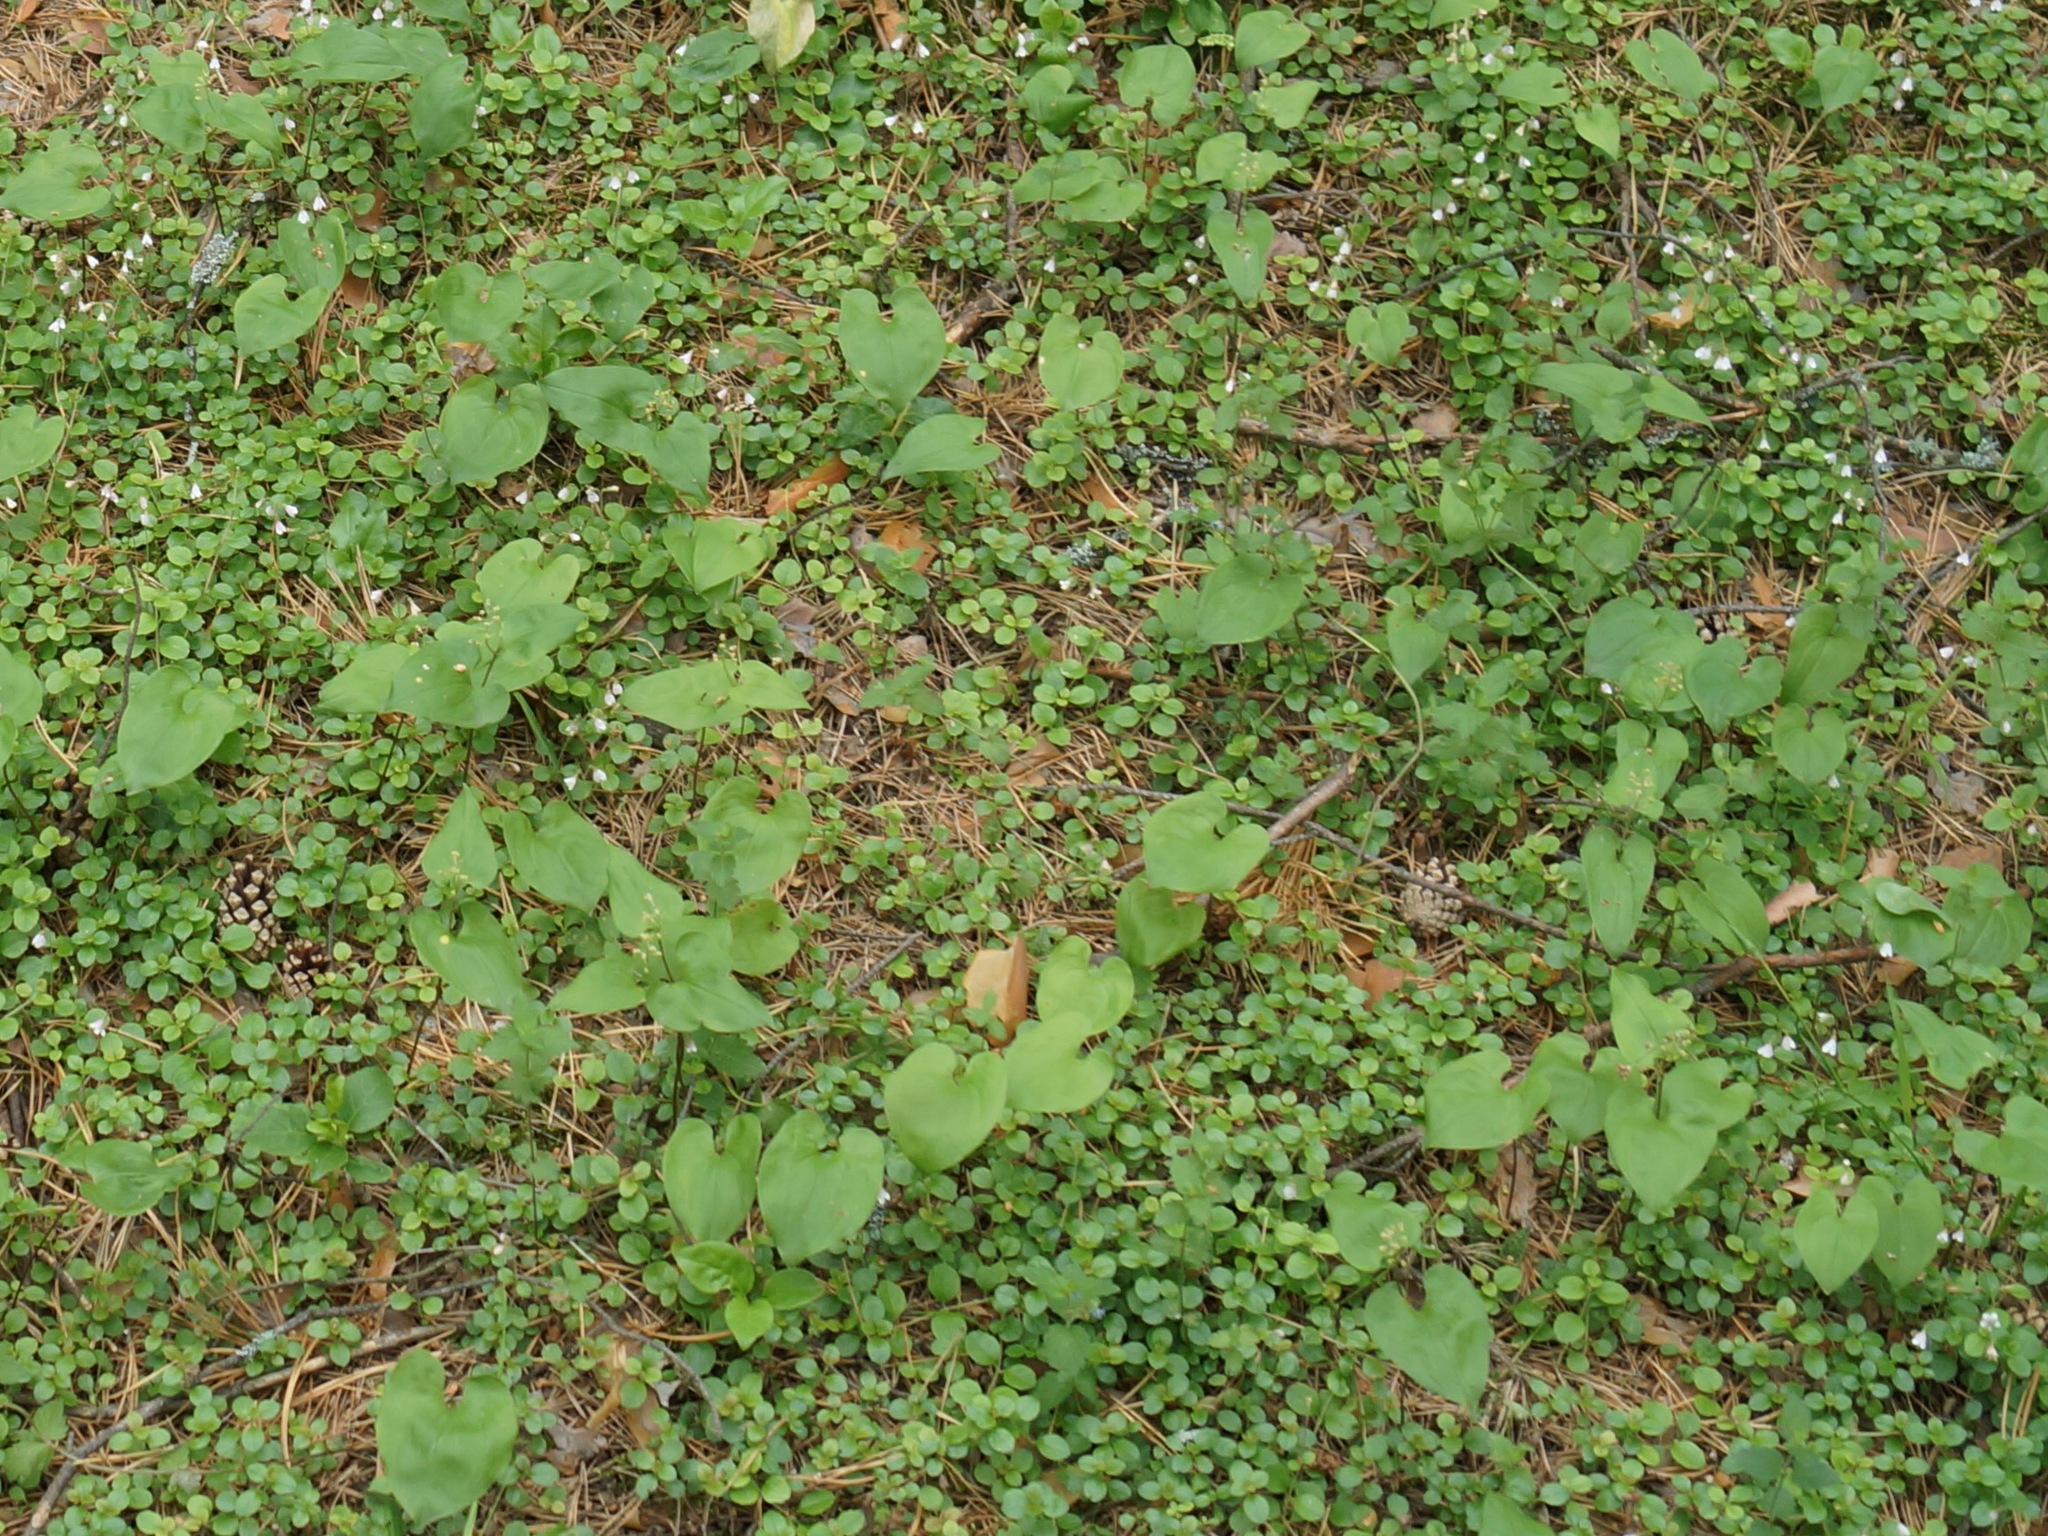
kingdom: Plantae
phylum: Tracheophyta
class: Liliopsida
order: Asparagales
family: Asparagaceae
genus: Maianthemum
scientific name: Maianthemum bifolium
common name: May lily
